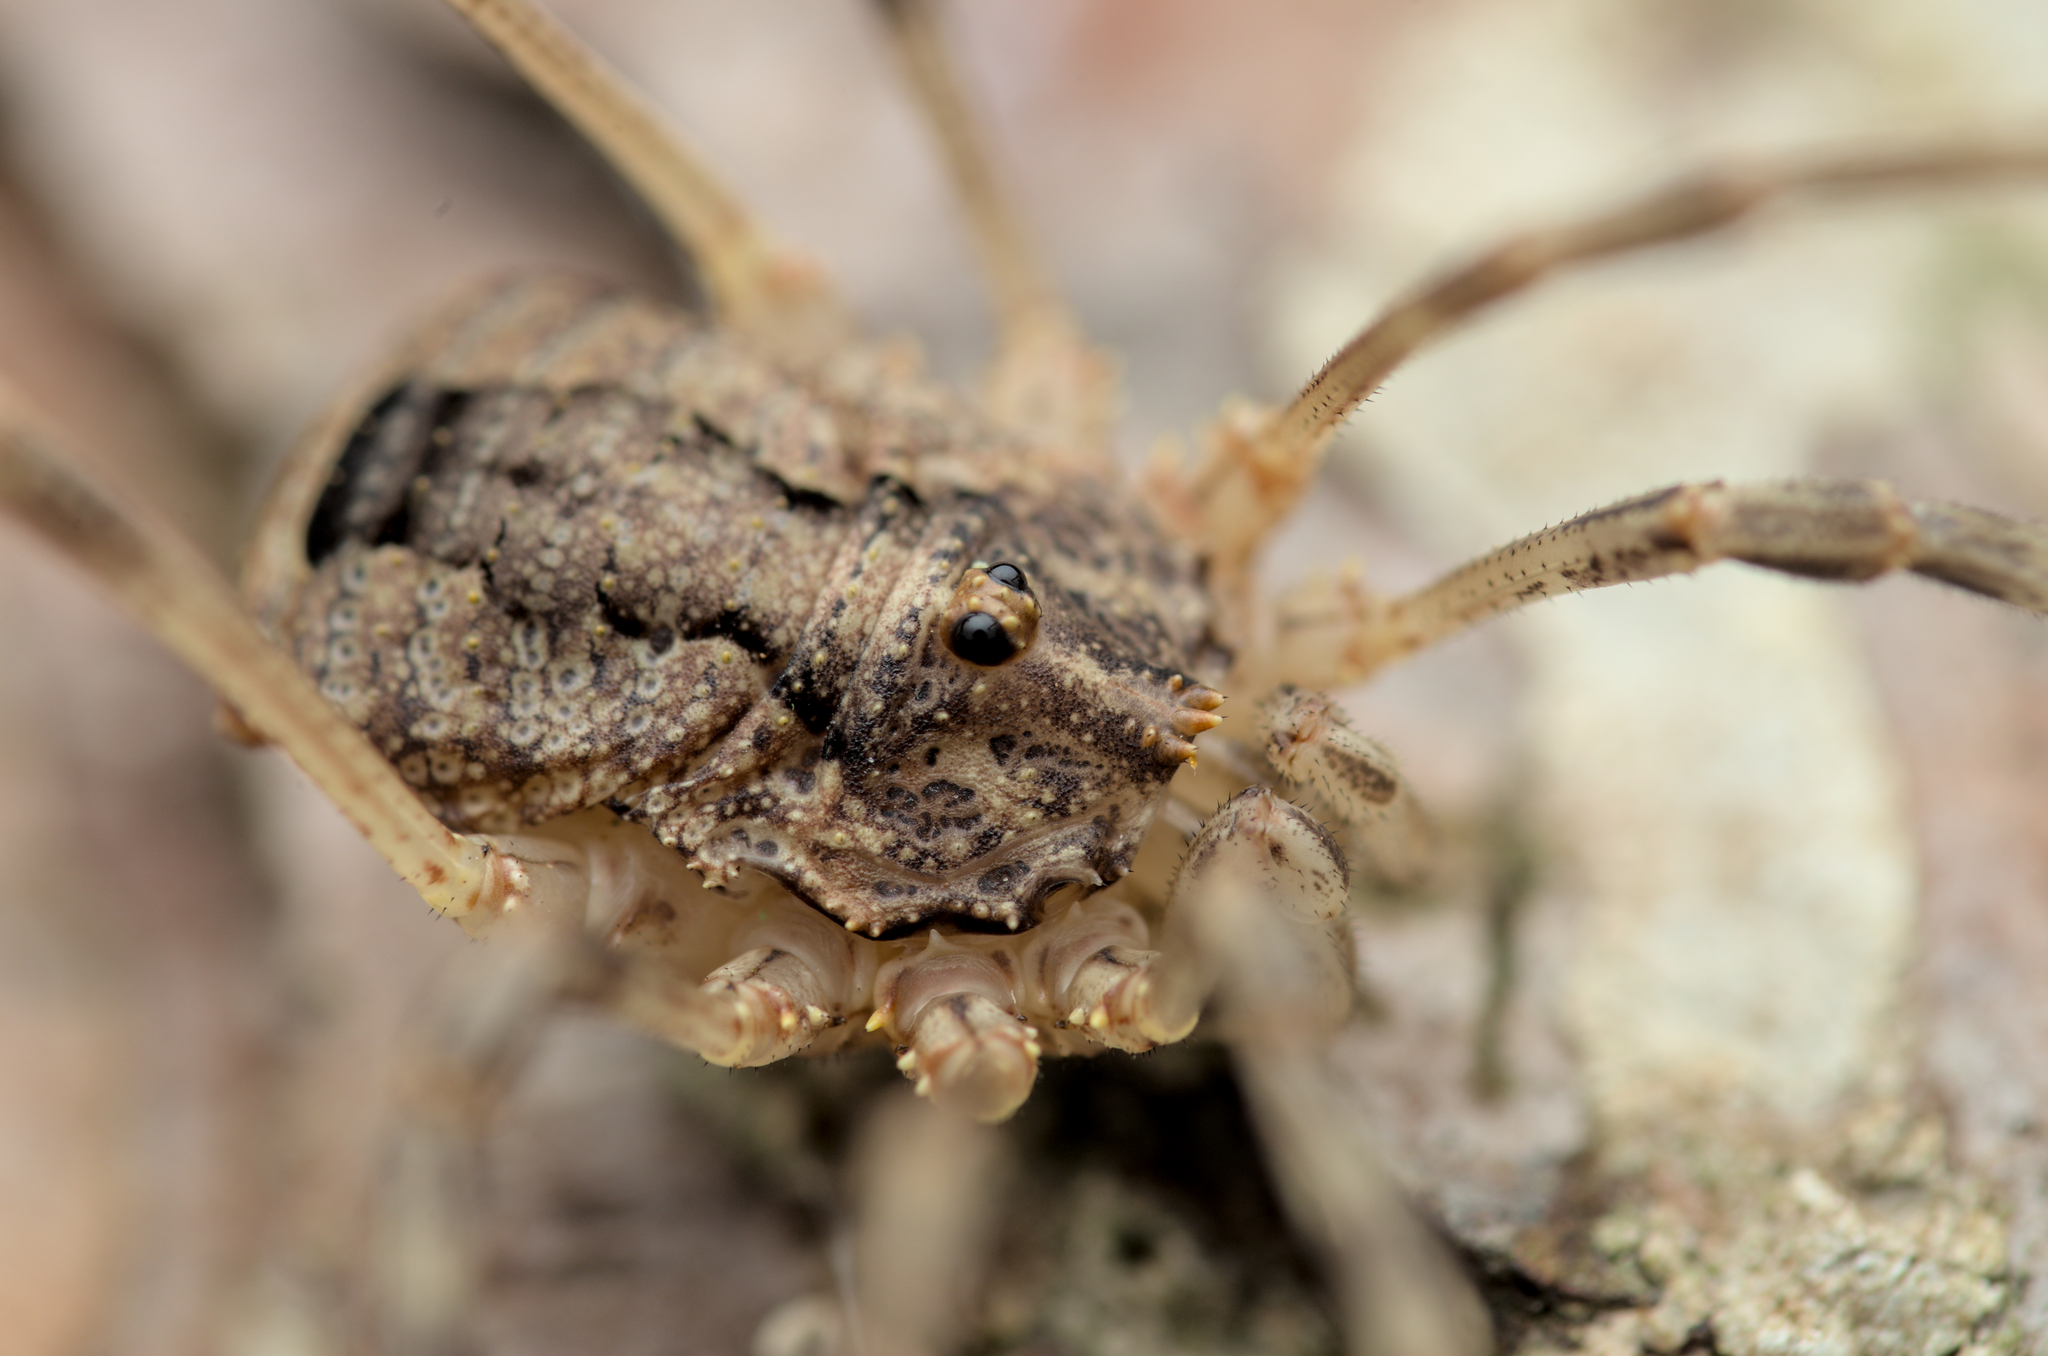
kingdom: Animalia
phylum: Arthropoda
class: Arachnida
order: Opiliones
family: Phalangiidae
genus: Odiellus
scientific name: Odiellus spinosus
